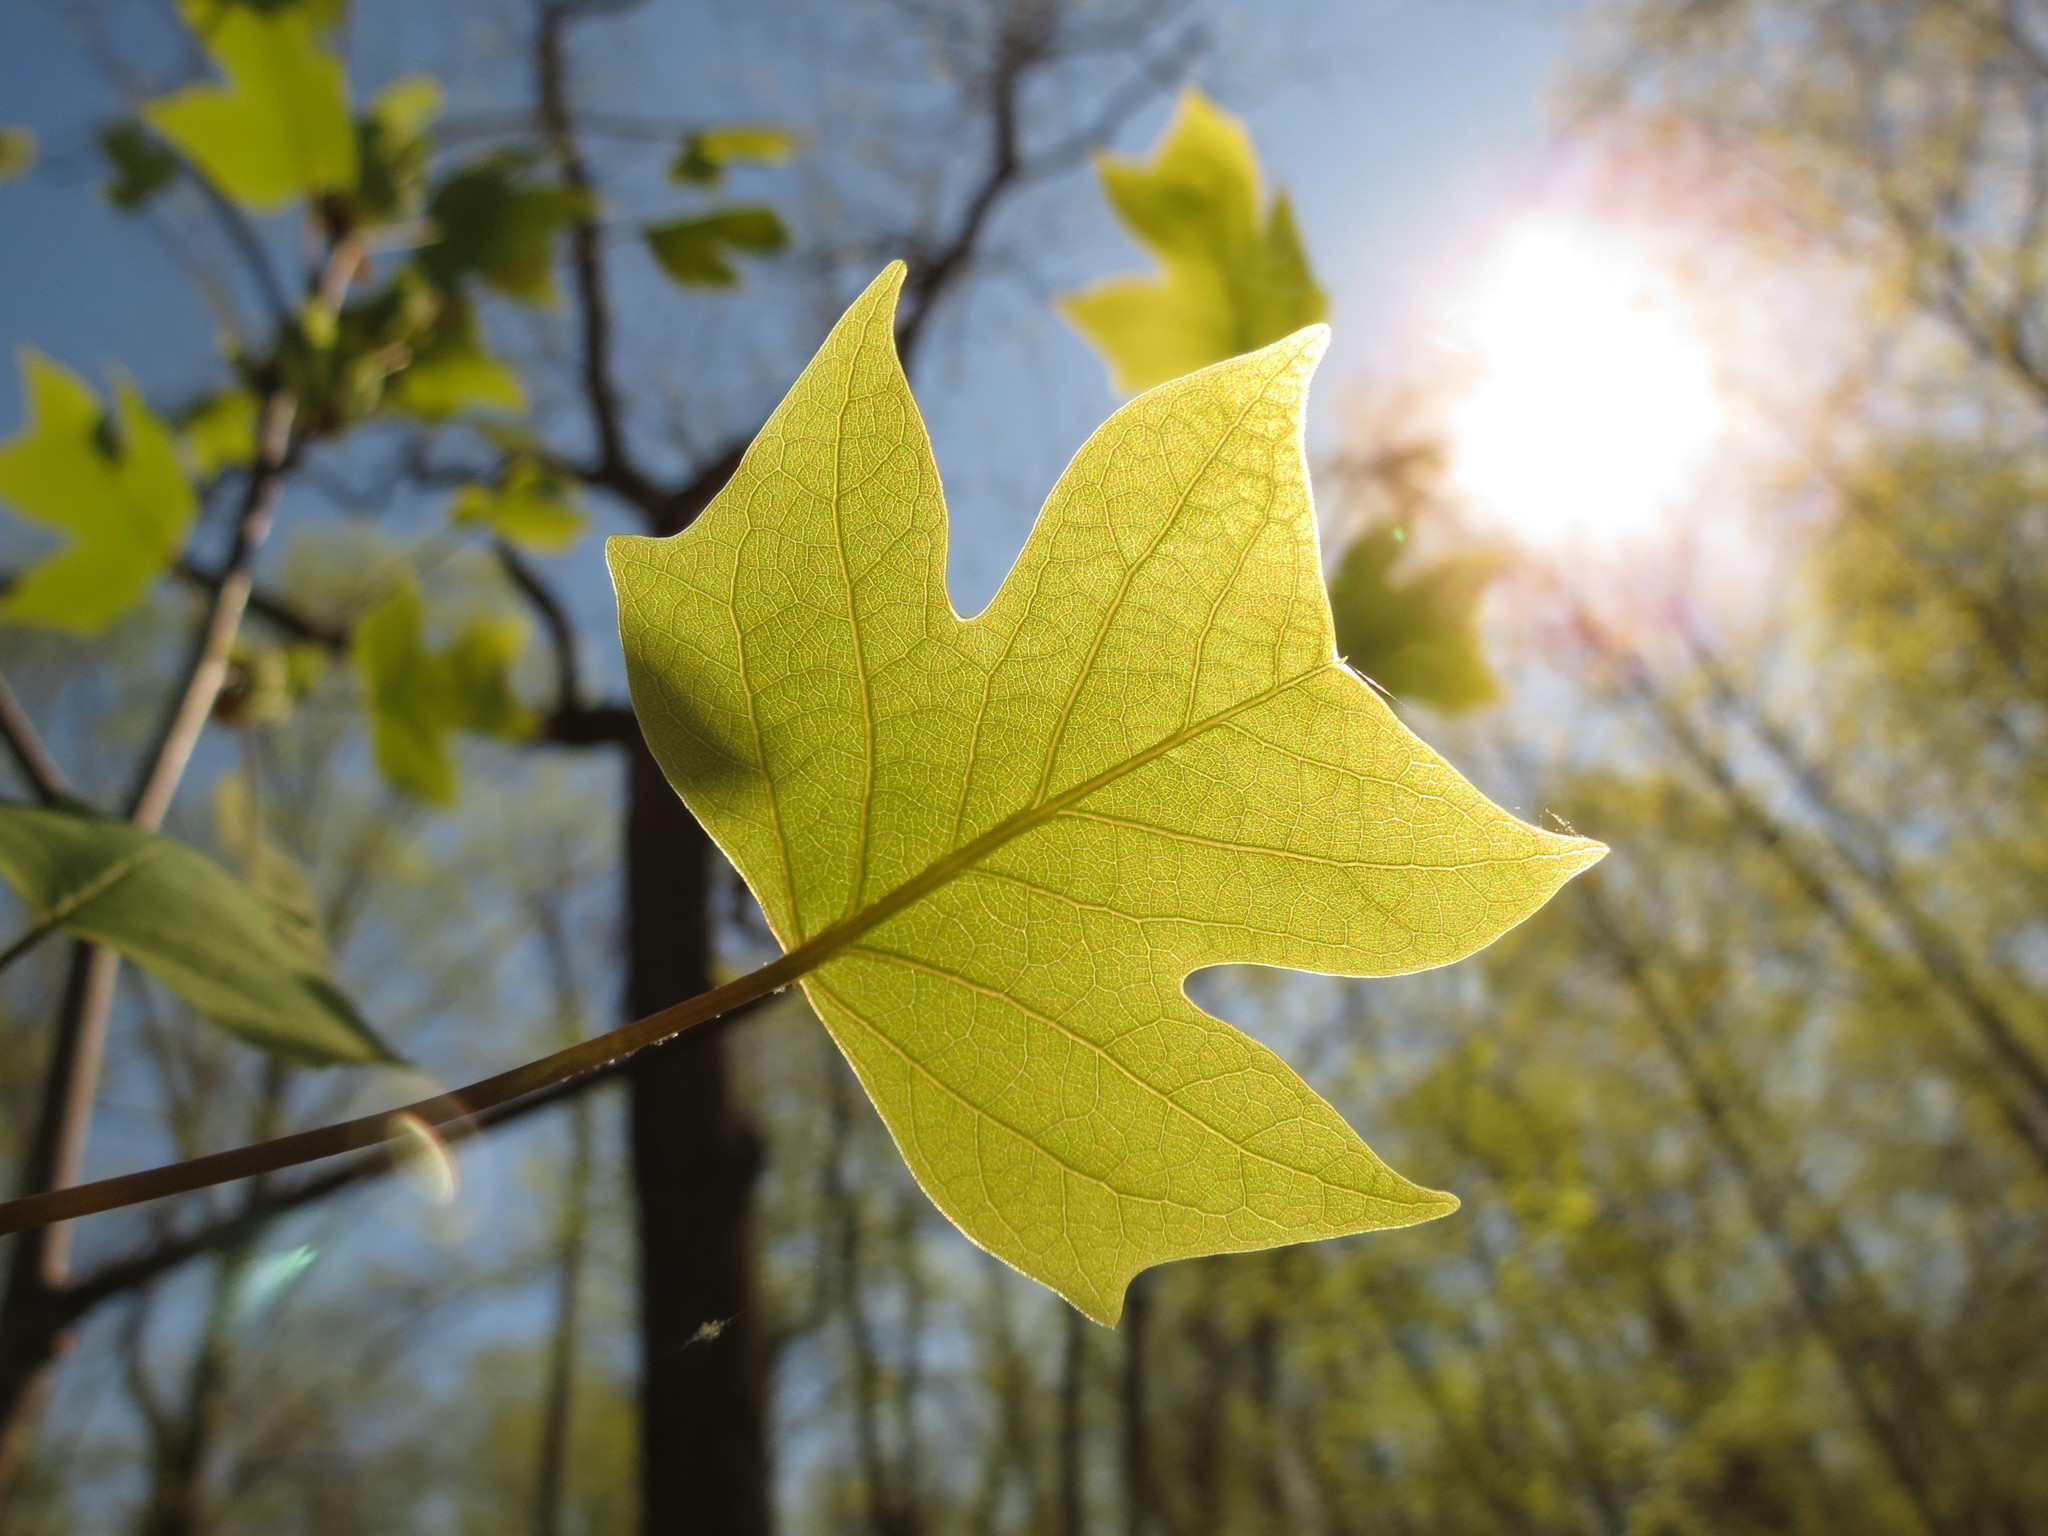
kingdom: Plantae
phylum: Tracheophyta
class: Magnoliopsida
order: Magnoliales
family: Magnoliaceae
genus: Liriodendron
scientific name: Liriodendron tulipifera
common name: Tulip tree
